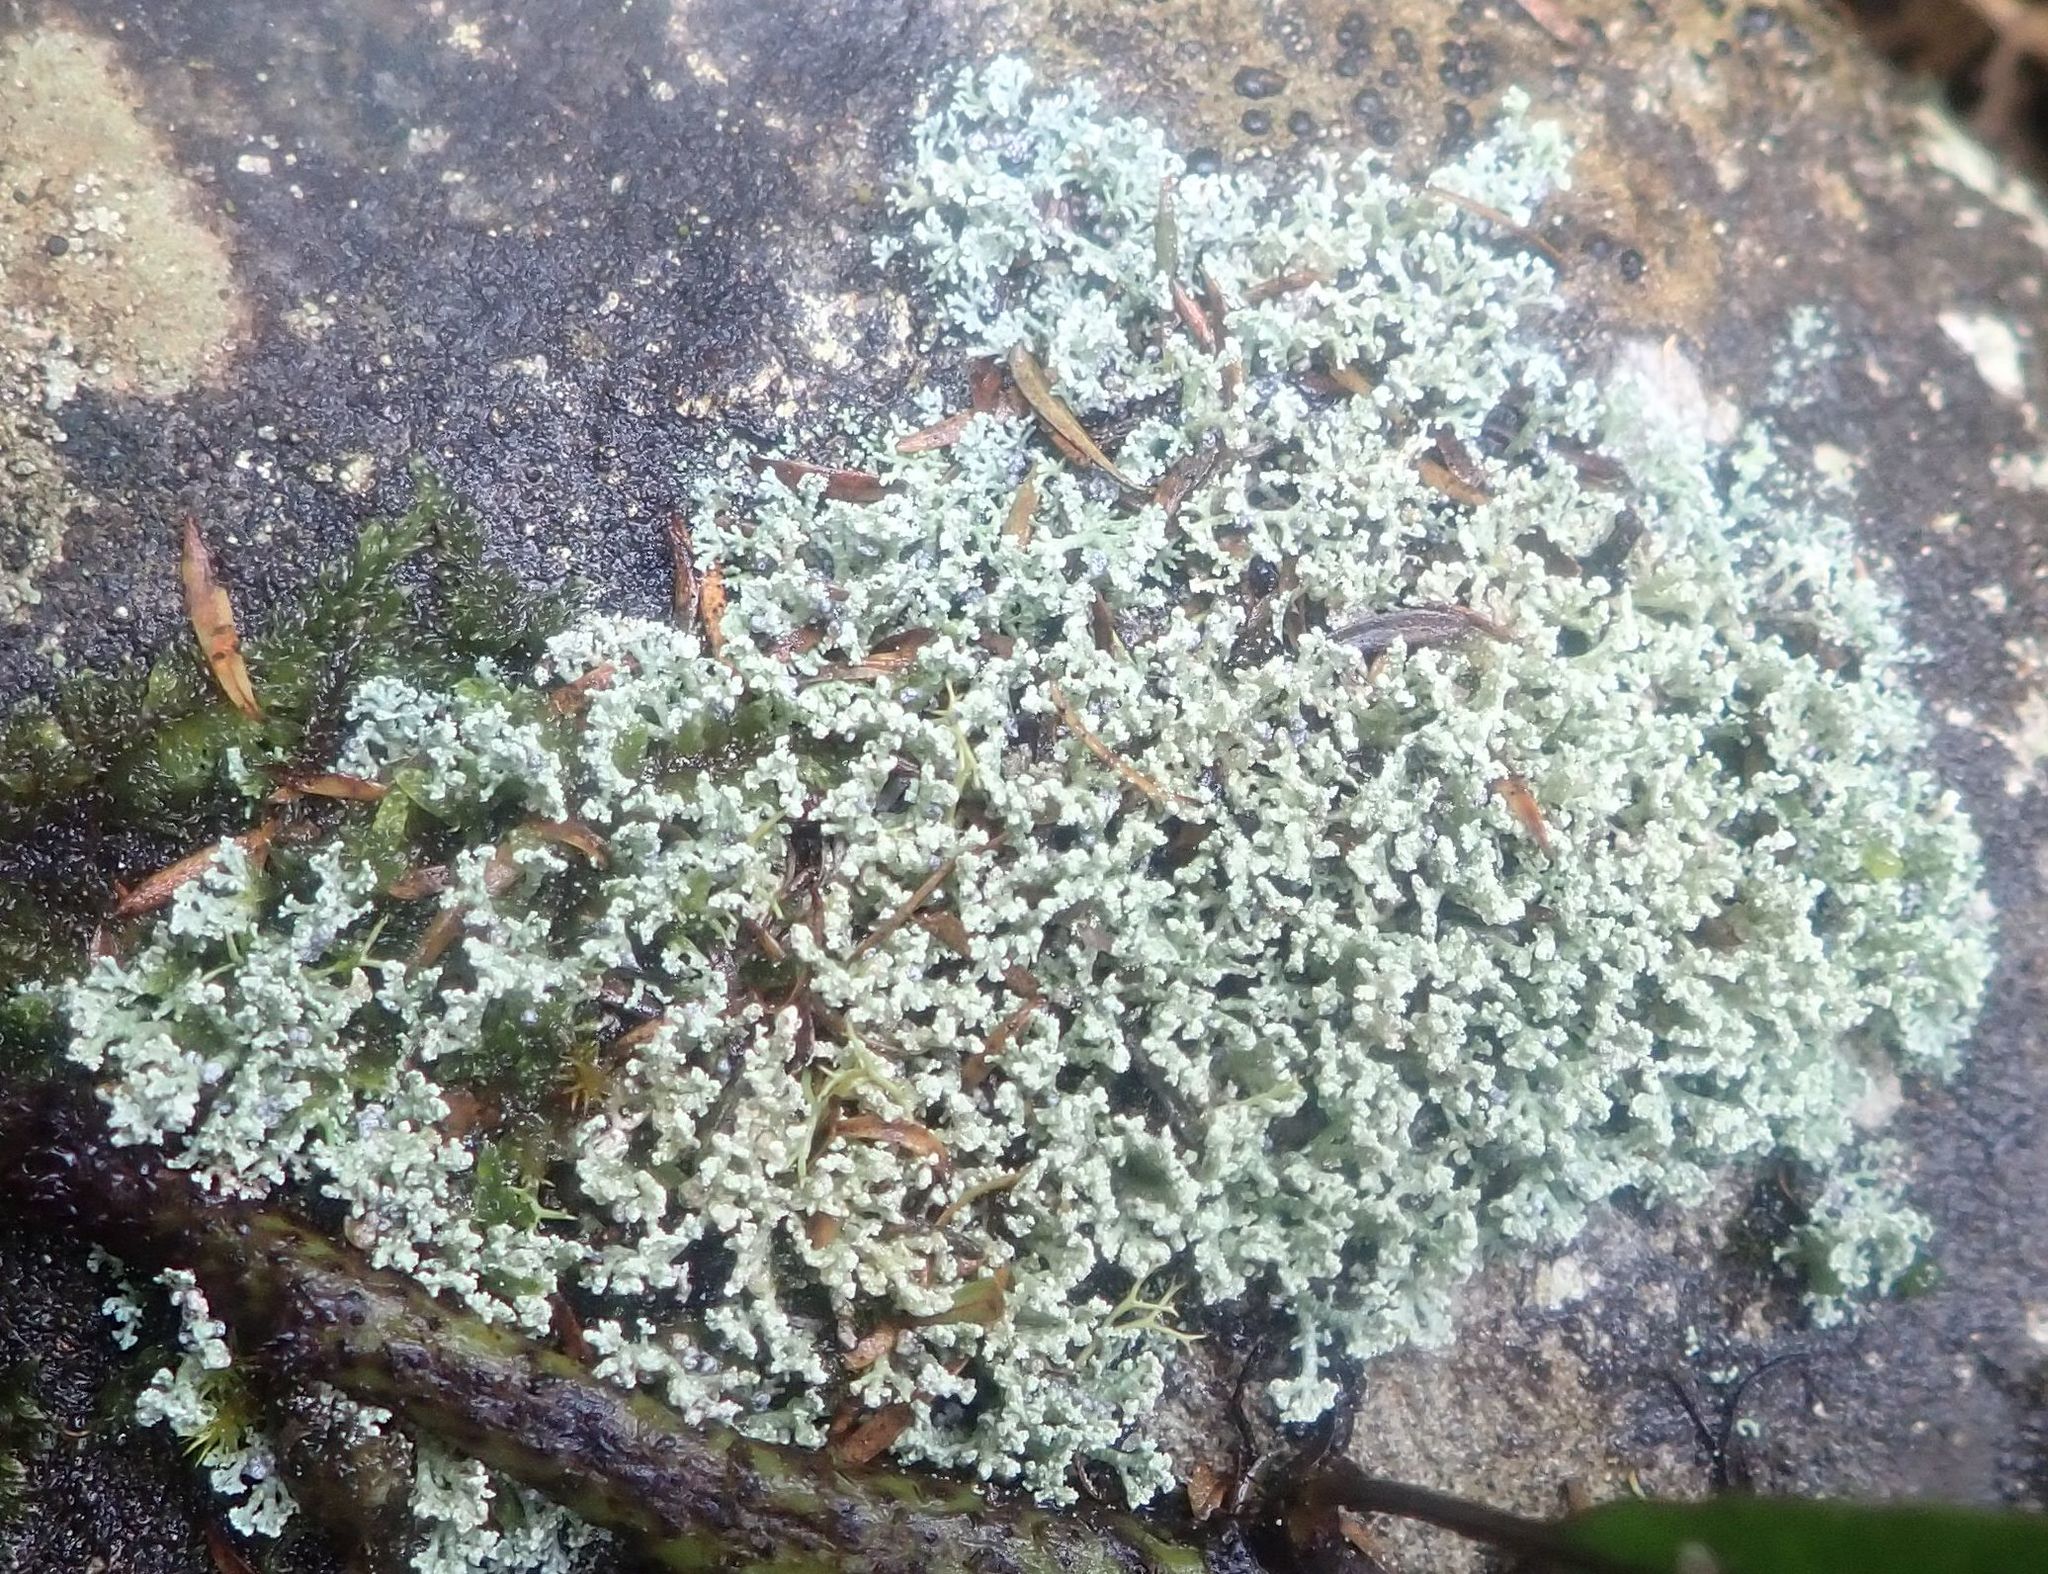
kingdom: Fungi
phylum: Ascomycota
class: Lecanoromycetes
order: Lecanorales
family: Stereocaulaceae
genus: Stereocaulon
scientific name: Stereocaulon corticatulum
